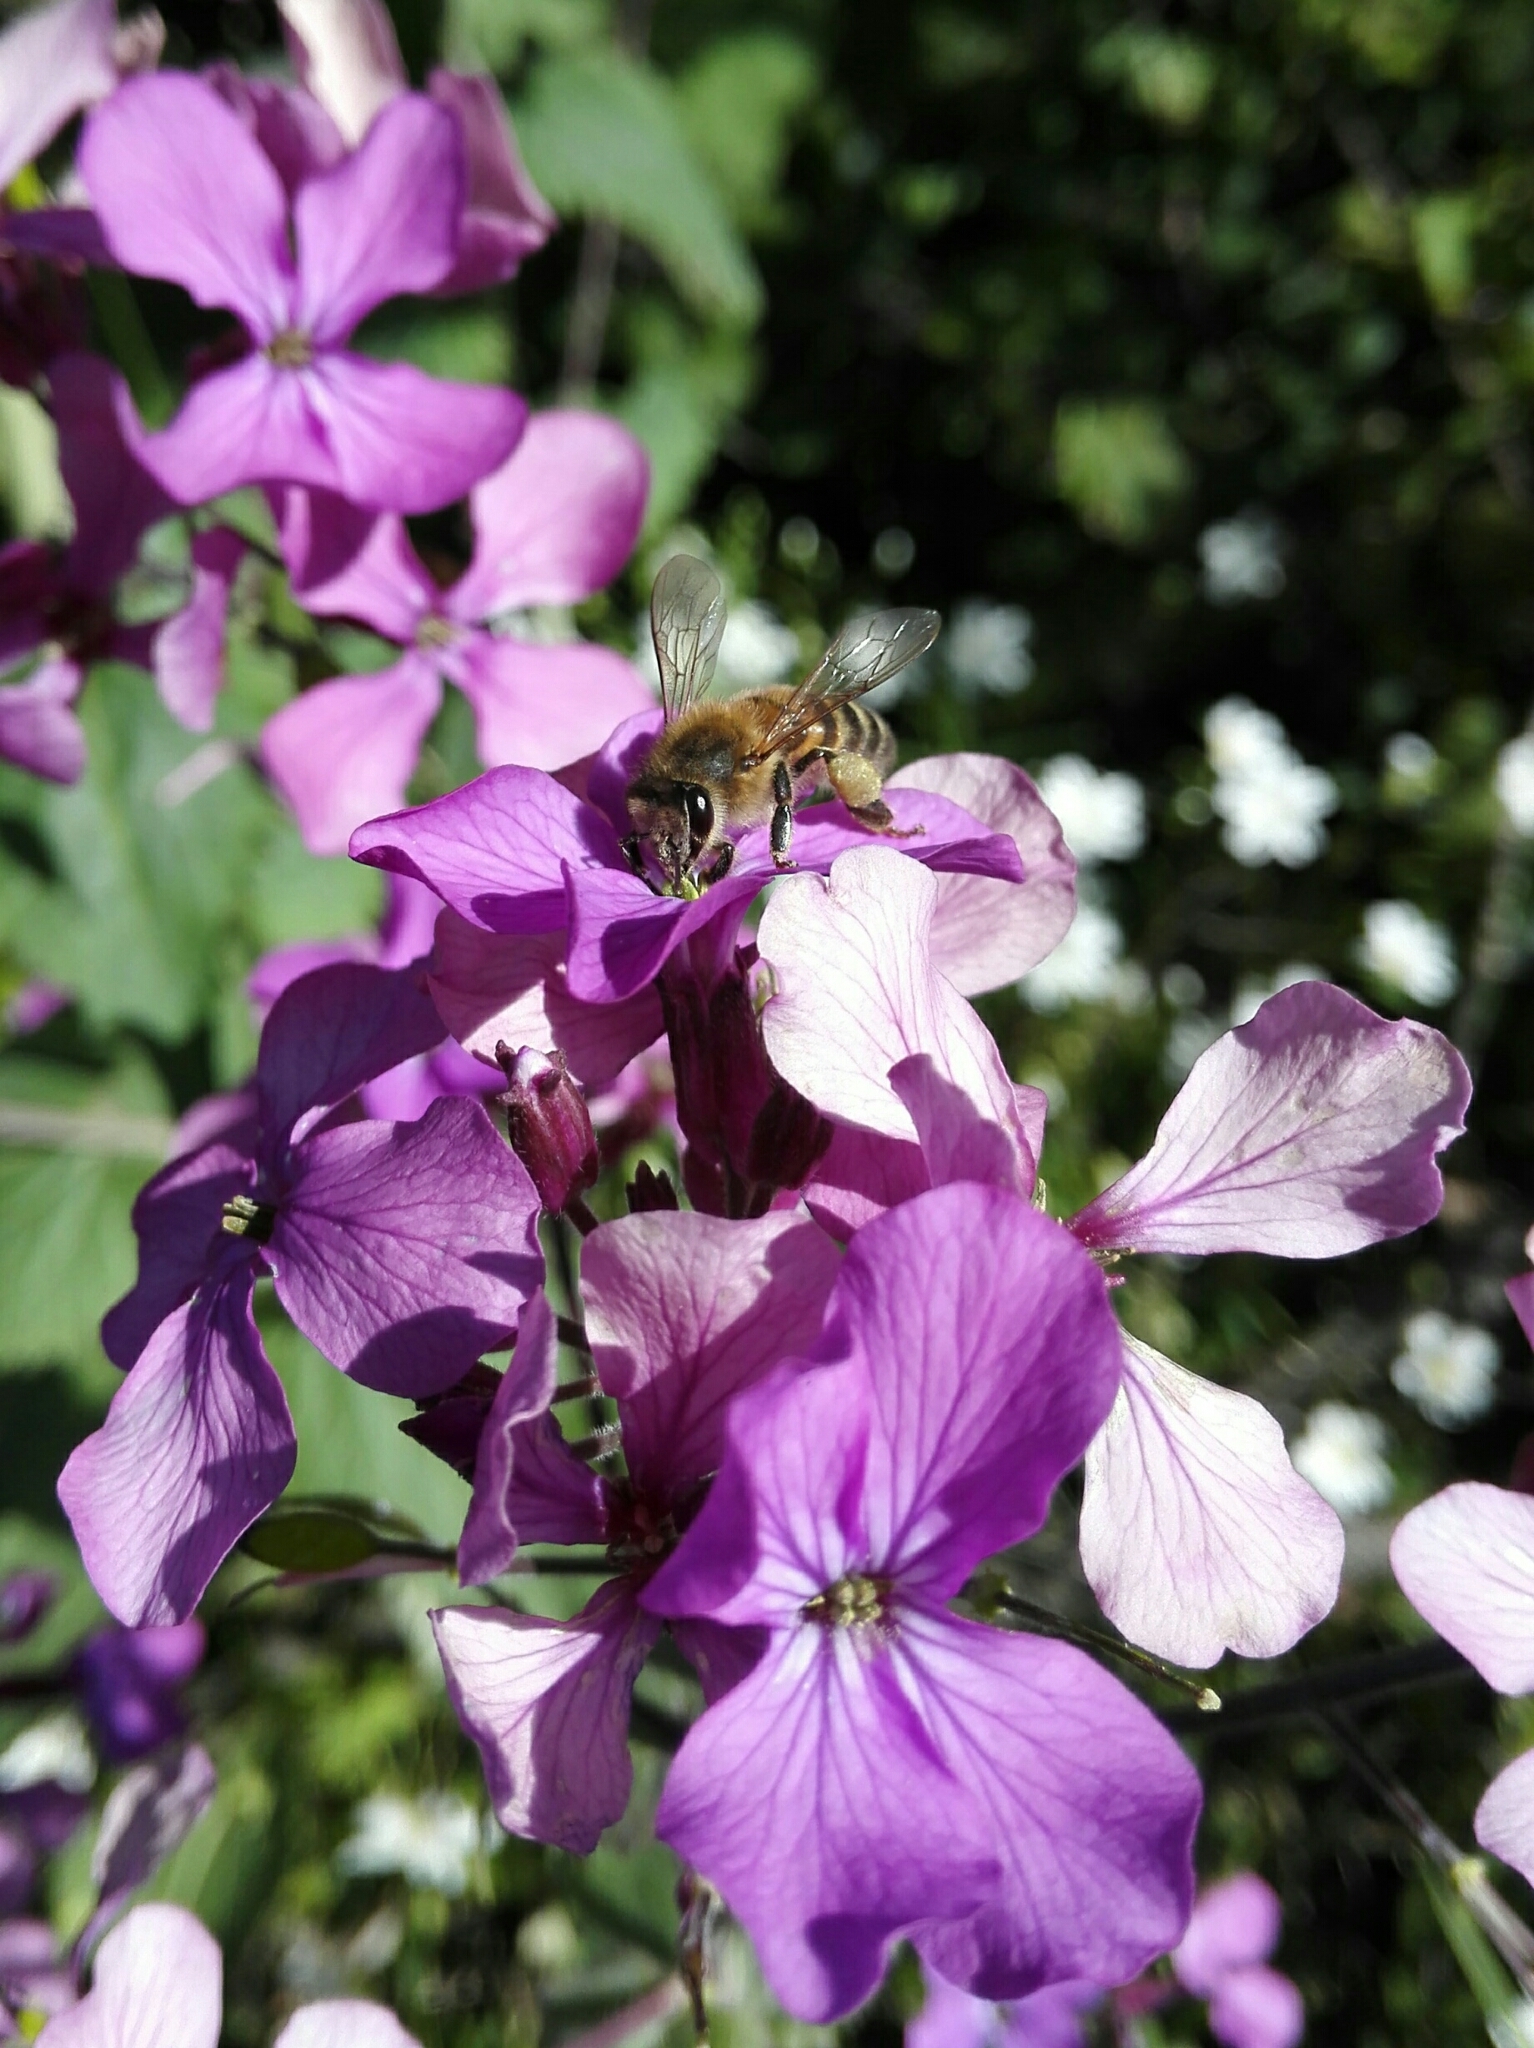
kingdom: Animalia
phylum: Arthropoda
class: Insecta
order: Hymenoptera
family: Apidae
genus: Apis
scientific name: Apis mellifera
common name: Honey bee
